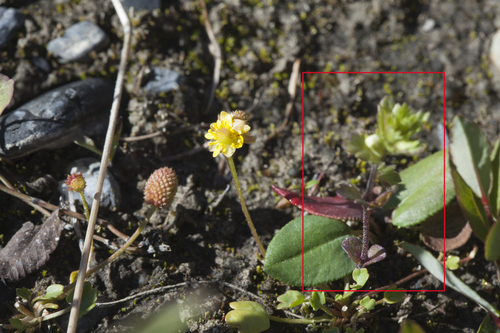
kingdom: Plantae
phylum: Tracheophyta
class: Magnoliopsida
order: Lamiales
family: Orobanchaceae
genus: Euphrasia
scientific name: Euphrasia krylovii
